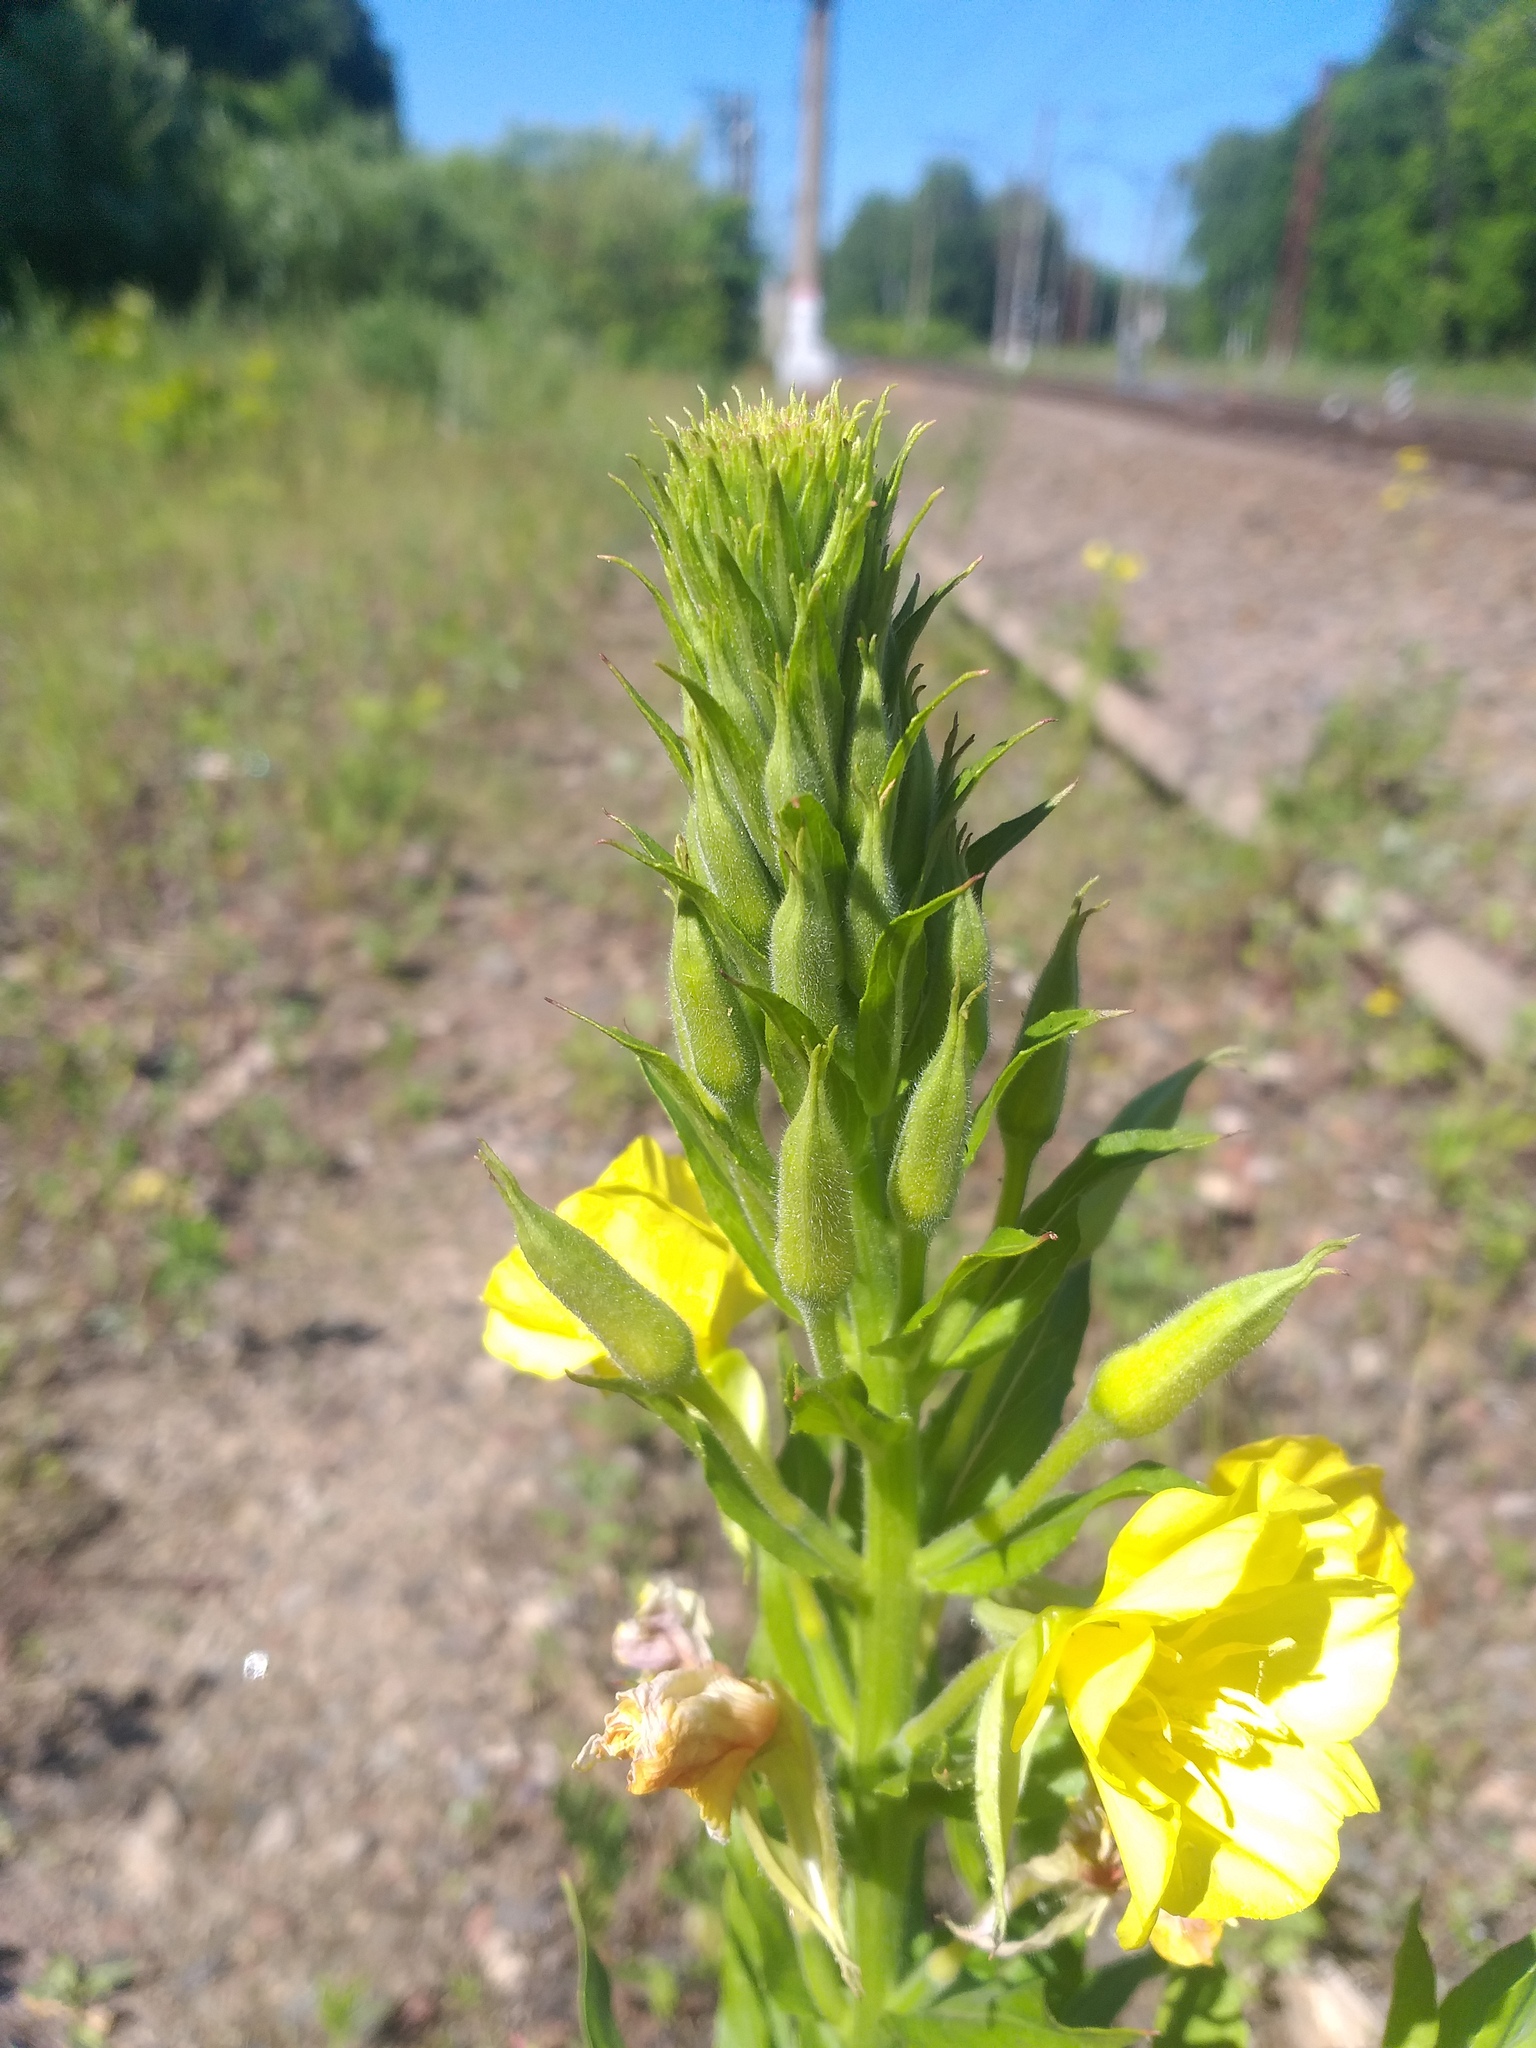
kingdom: Plantae
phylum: Tracheophyta
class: Magnoliopsida
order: Myrtales
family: Onagraceae
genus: Oenothera
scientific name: Oenothera biennis
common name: Common evening-primrose
